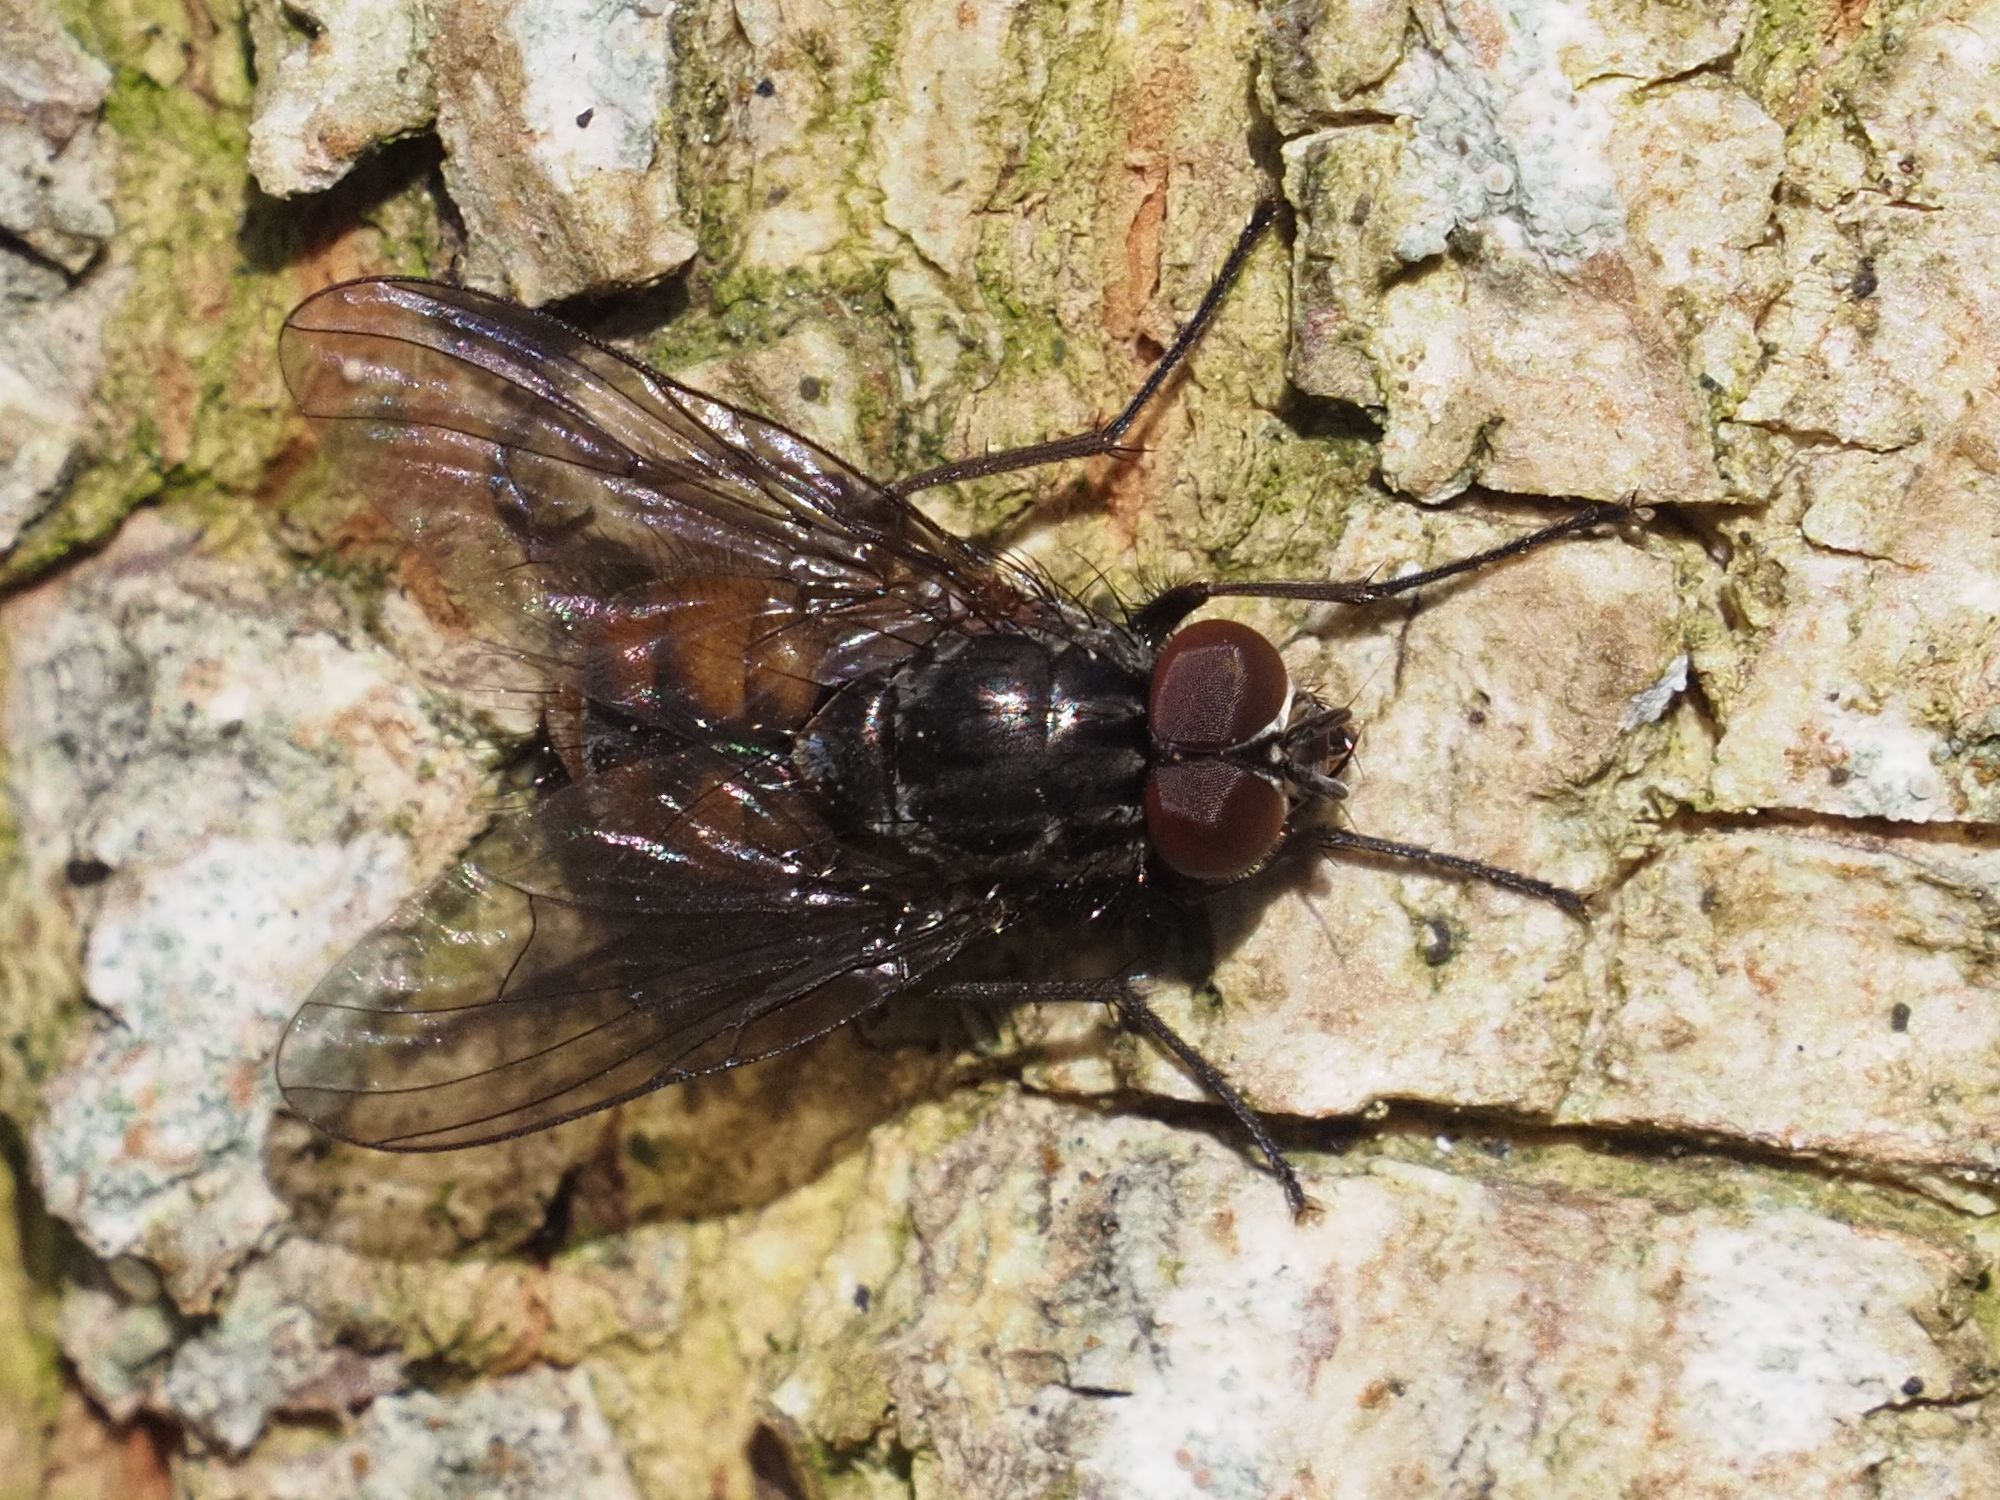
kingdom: Animalia
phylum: Arthropoda
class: Insecta
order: Diptera
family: Muscidae
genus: Phaonia
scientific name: Phaonia subventa
